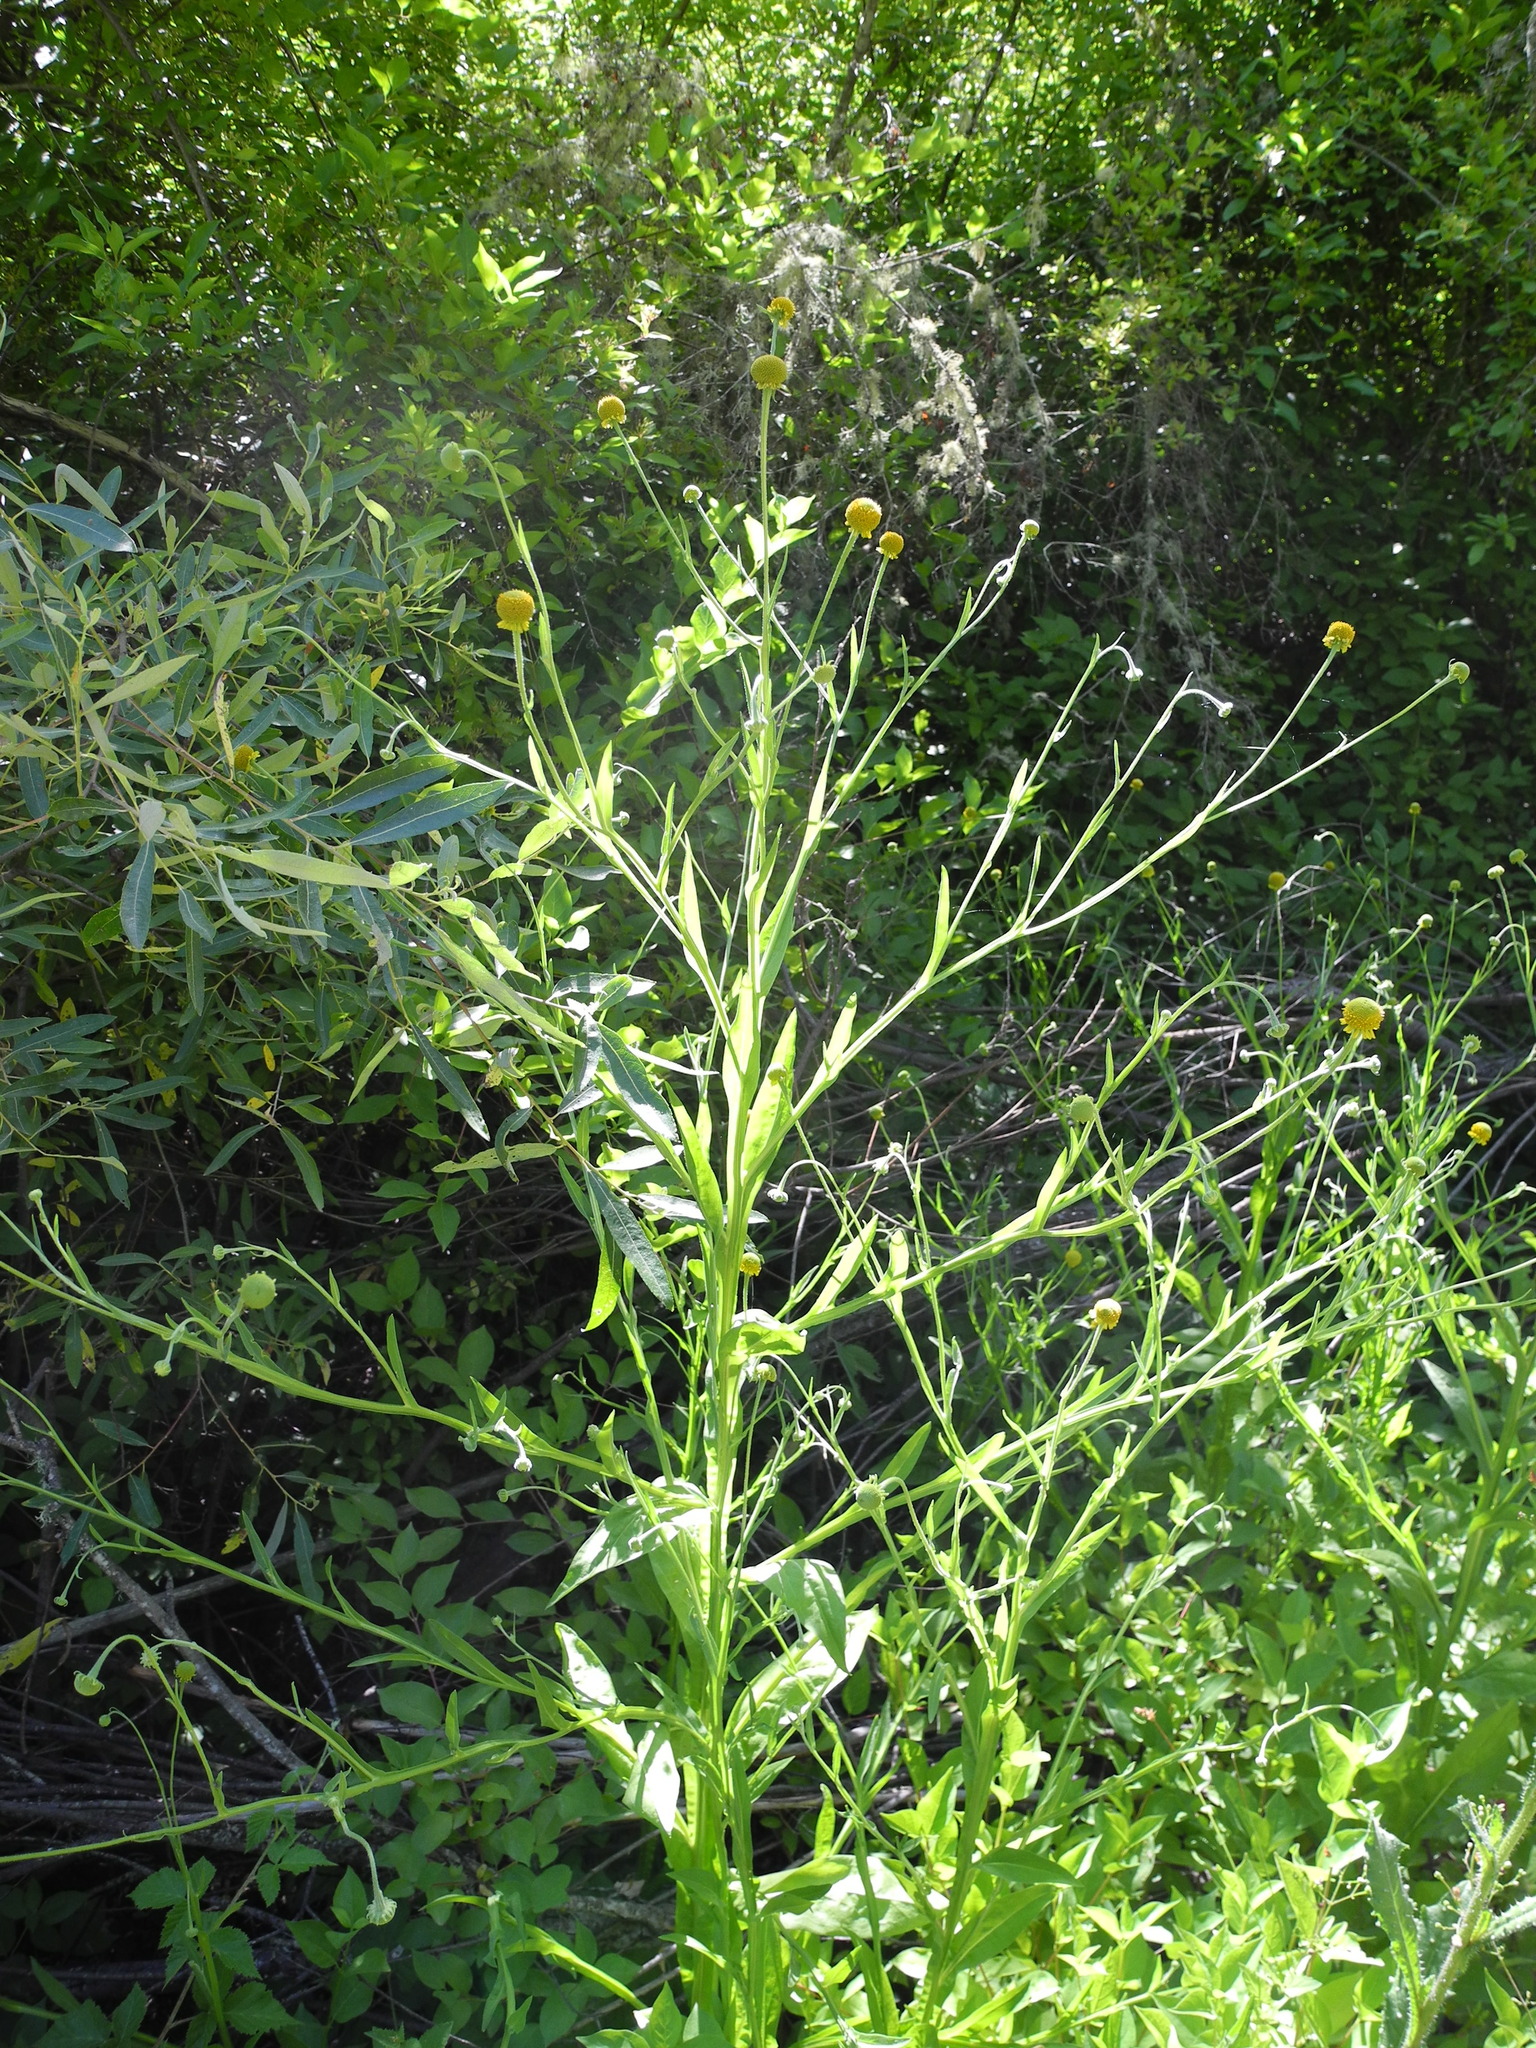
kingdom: Plantae
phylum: Tracheophyta
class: Magnoliopsida
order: Asterales
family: Asteraceae
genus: Helenium
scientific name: Helenium puberulum
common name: Sneezewort
